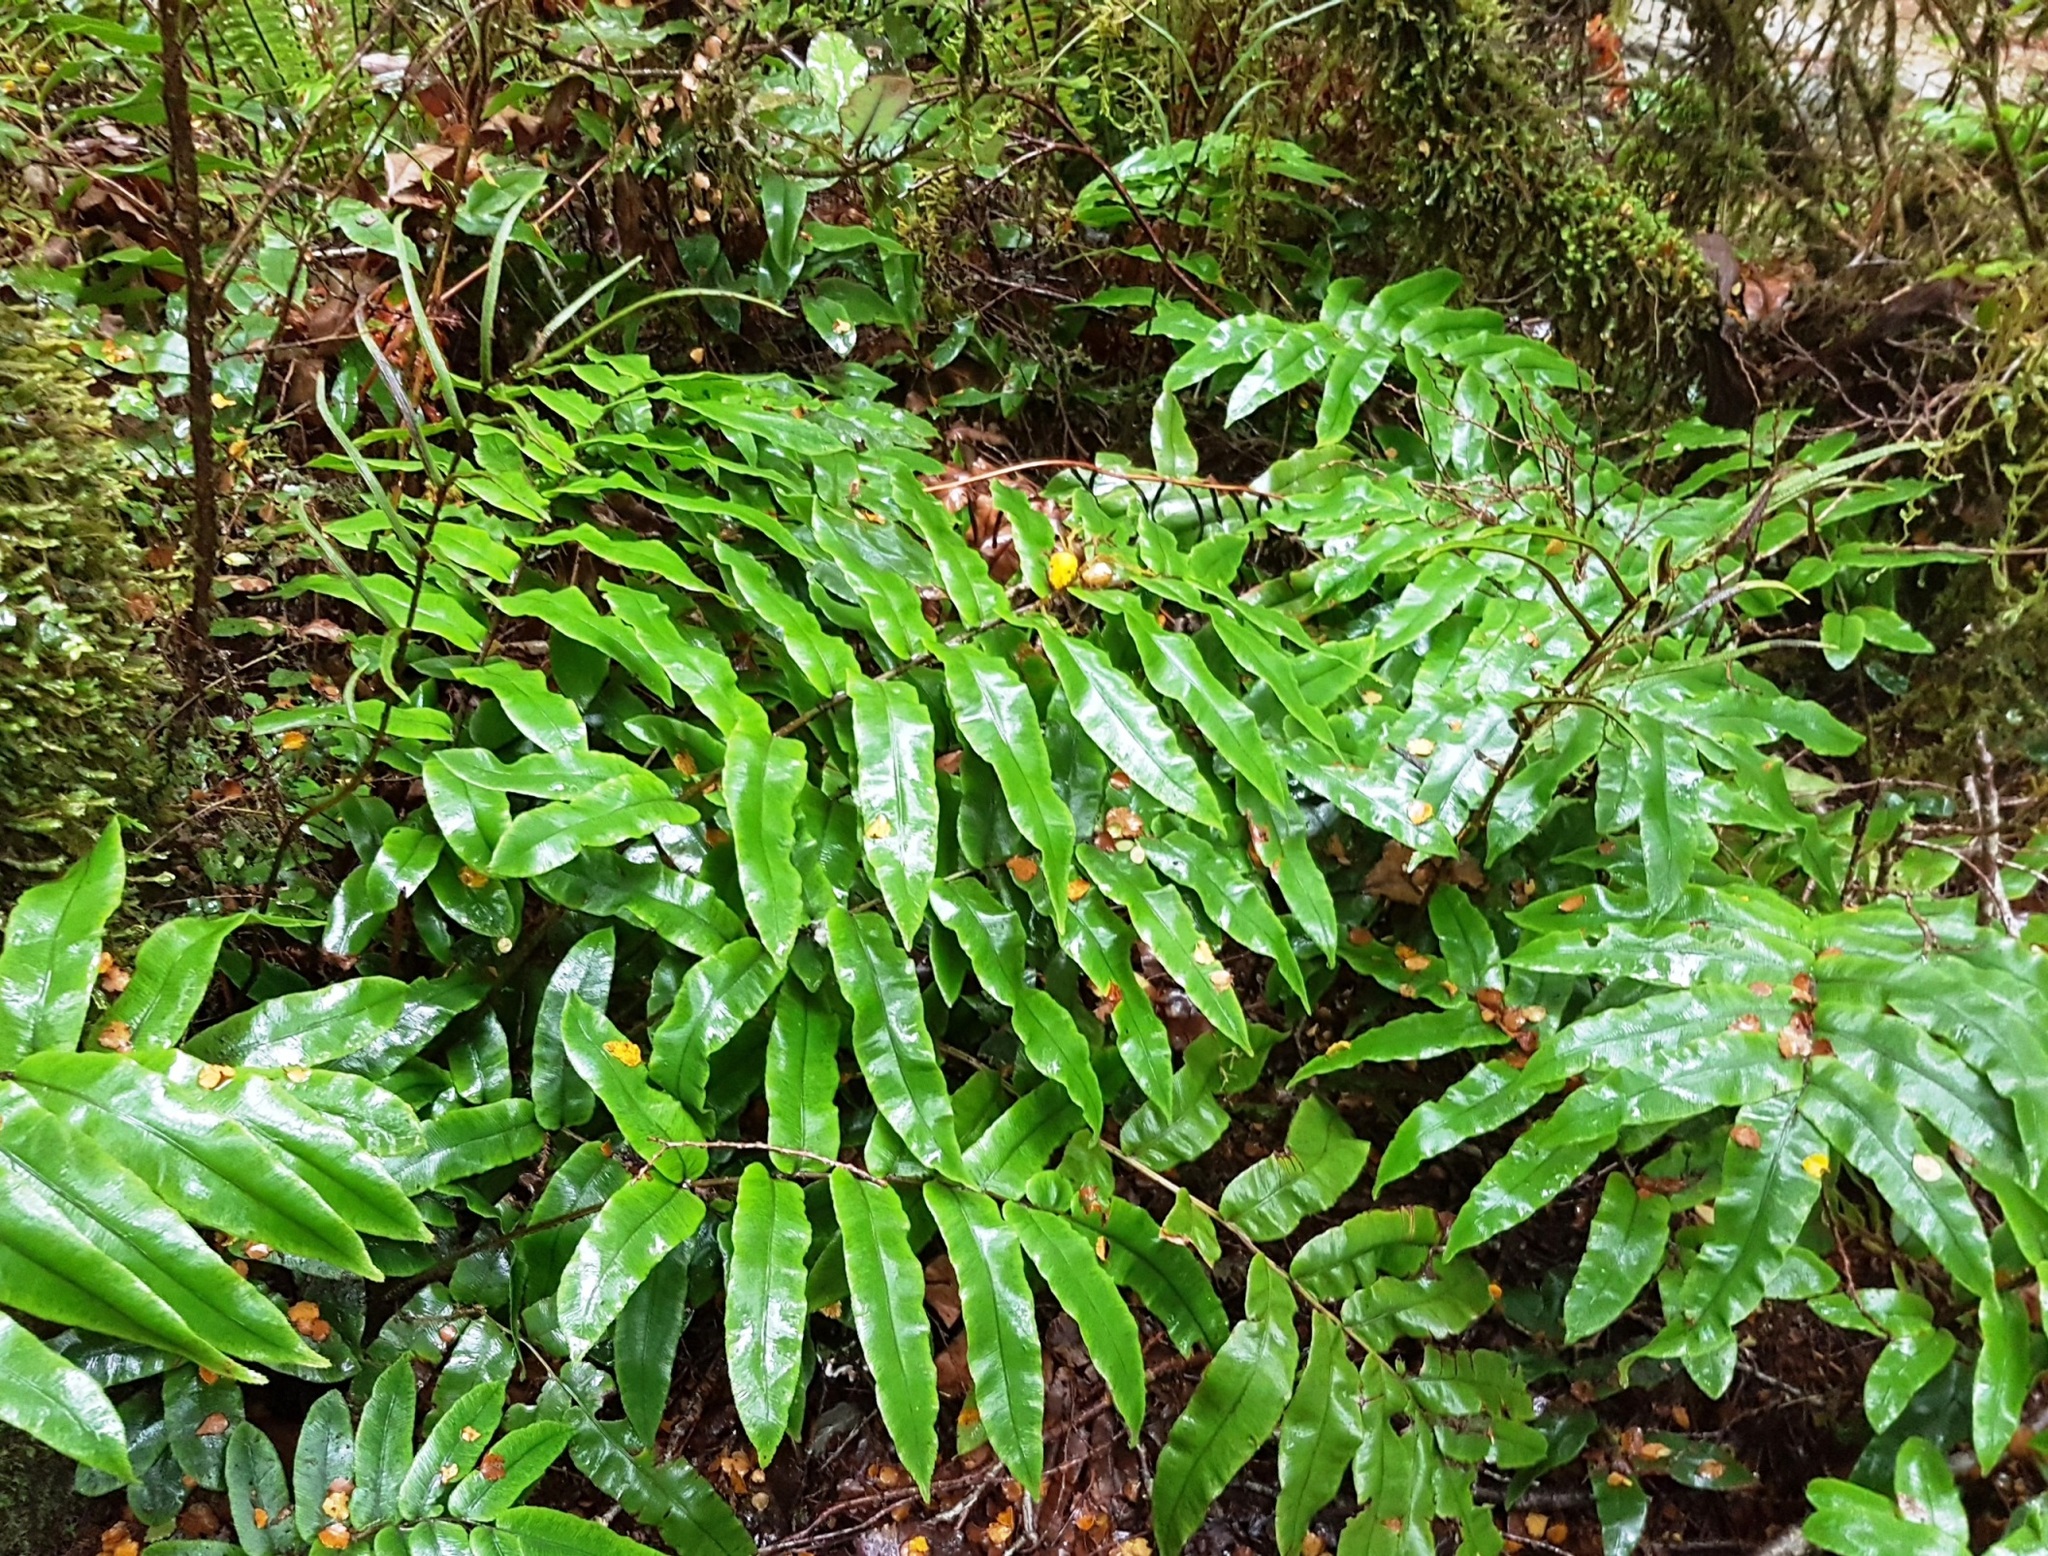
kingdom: Plantae
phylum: Tracheophyta
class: Polypodiopsida
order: Polypodiales
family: Blechnaceae
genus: Parablechnum
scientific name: Parablechnum procerum
